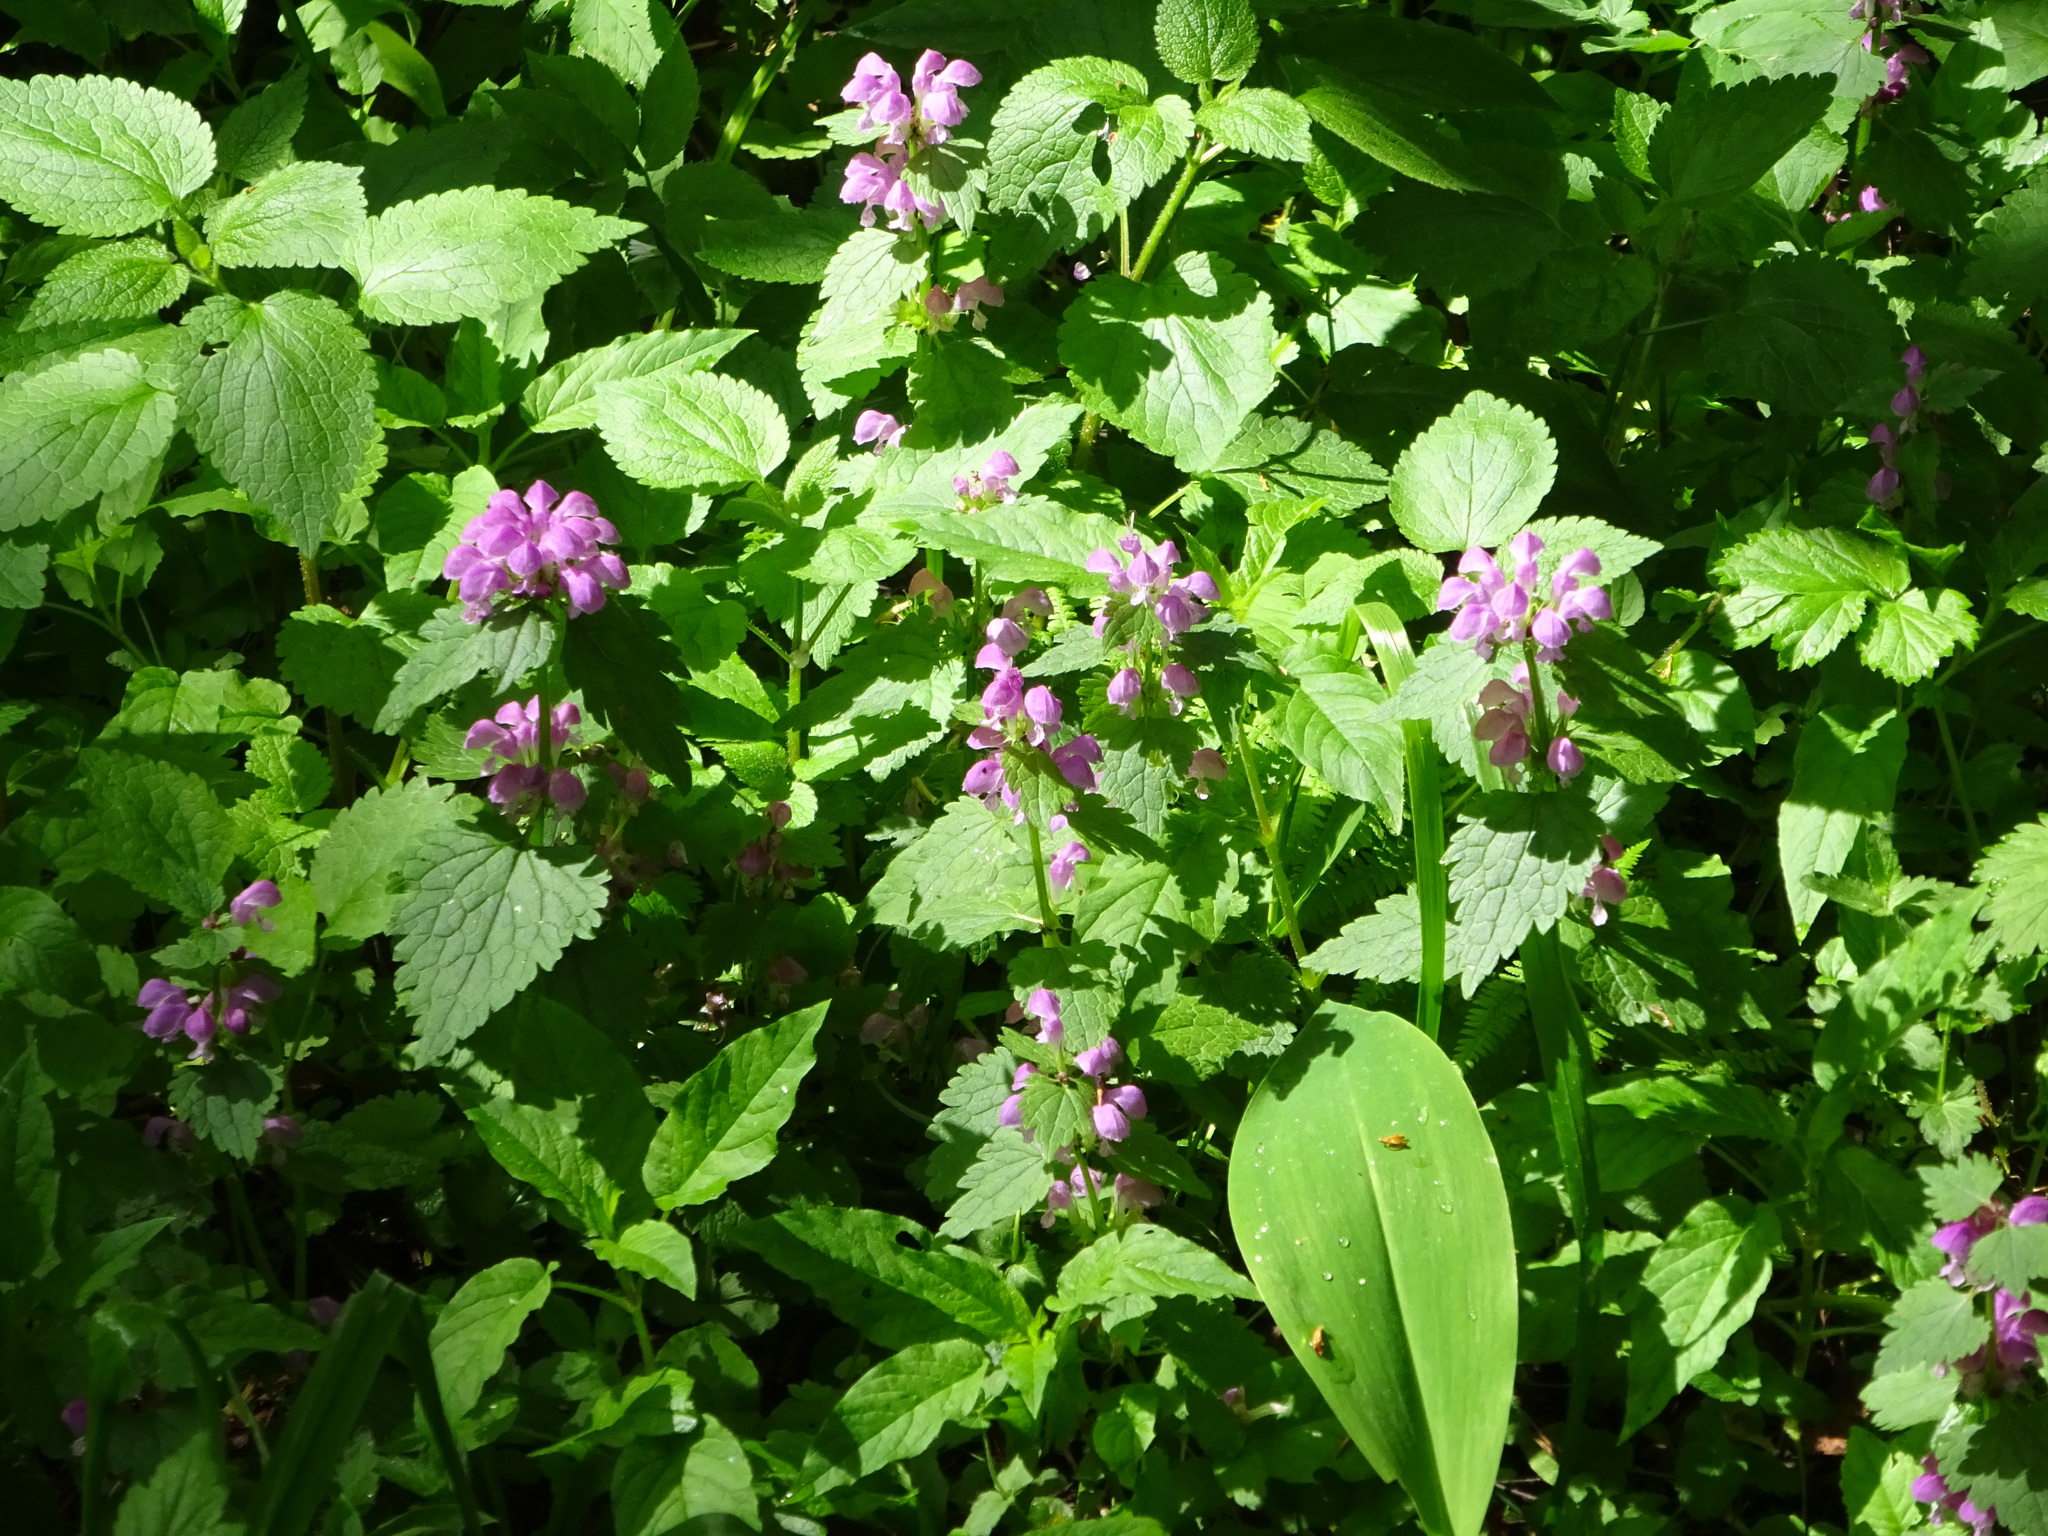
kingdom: Plantae
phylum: Tracheophyta
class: Magnoliopsida
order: Lamiales
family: Lamiaceae
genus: Lamium
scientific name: Lamium maculatum
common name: Spotted dead-nettle
